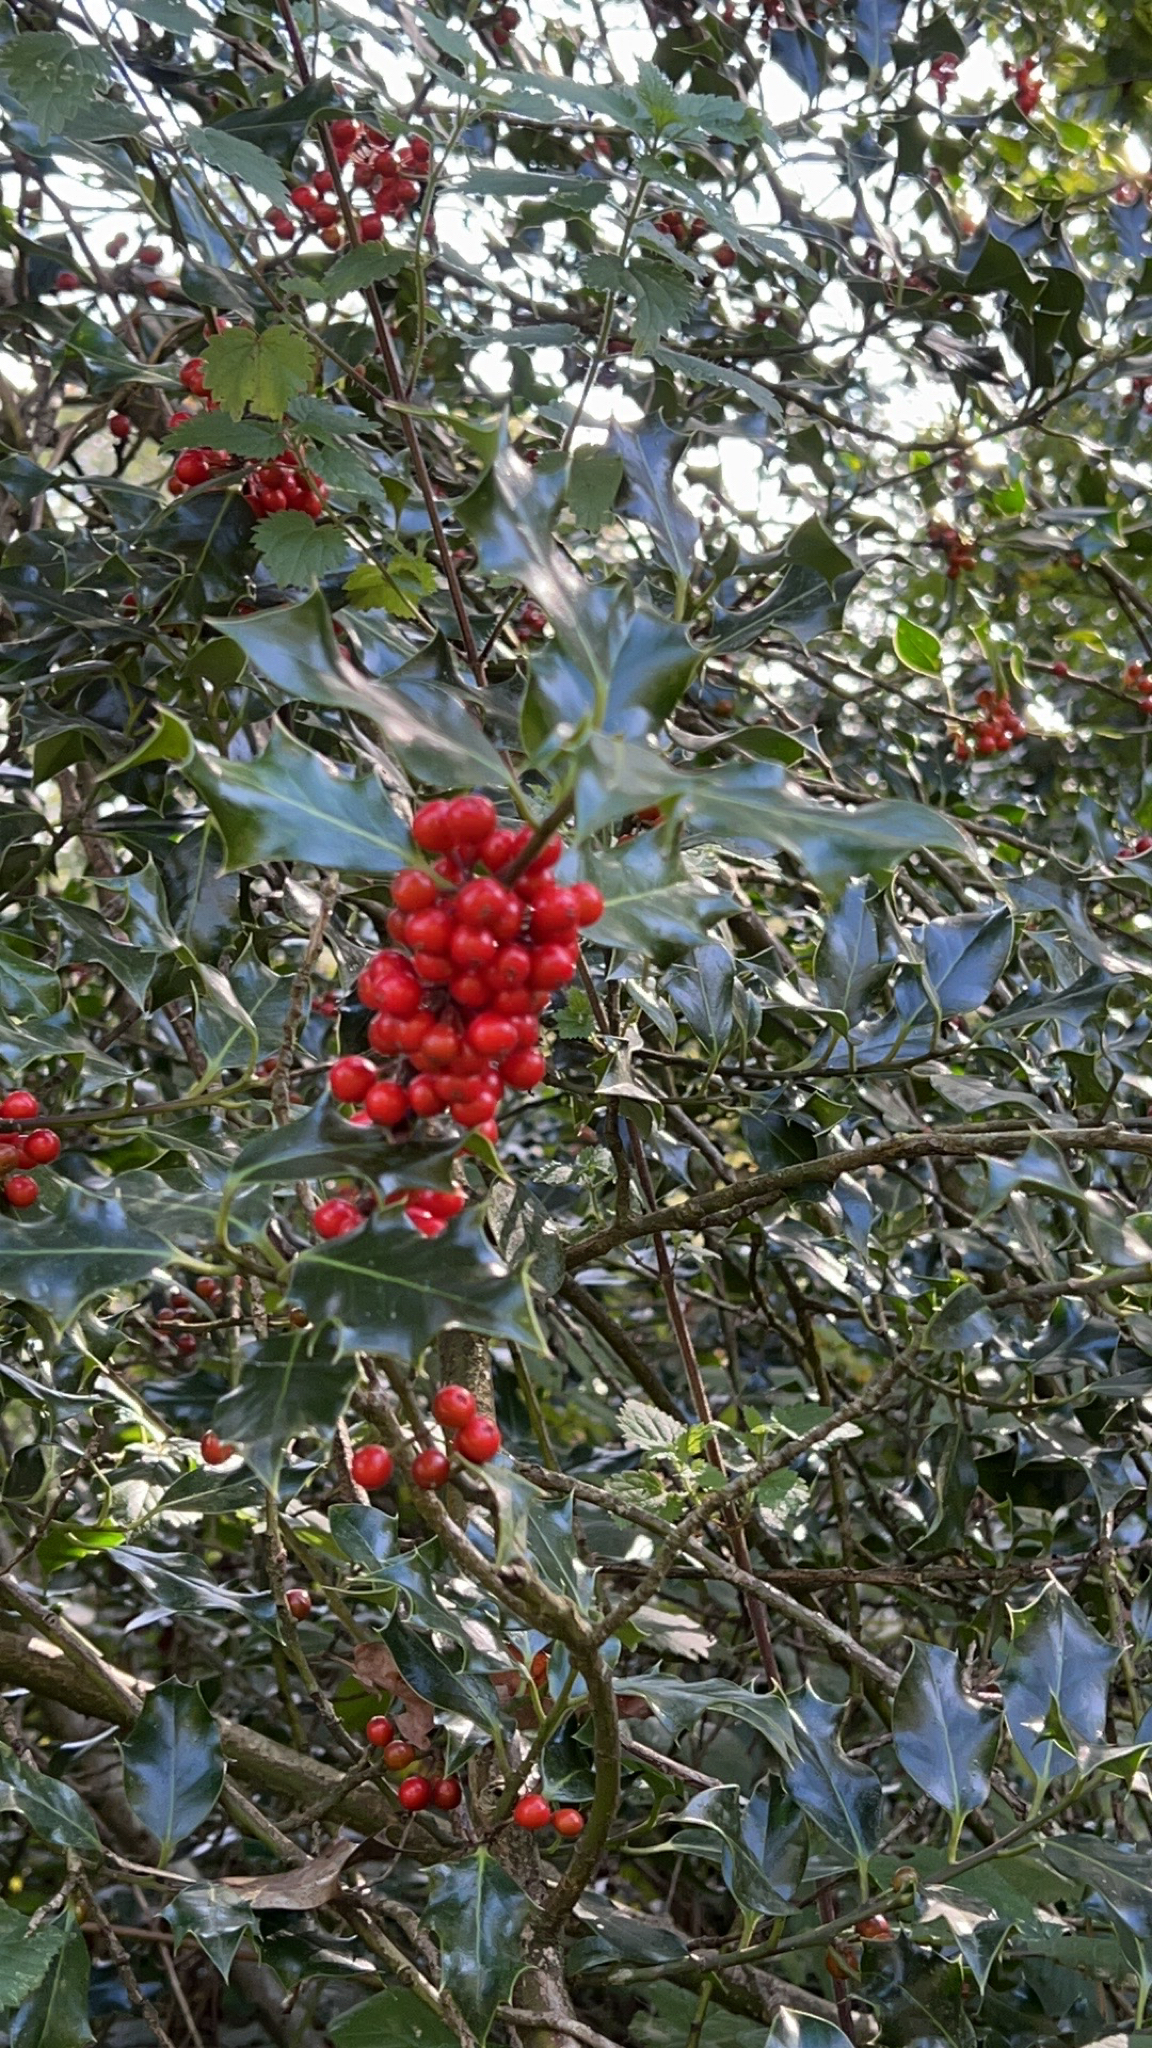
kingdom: Plantae
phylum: Tracheophyta
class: Magnoliopsida
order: Aquifoliales
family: Aquifoliaceae
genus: Ilex
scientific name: Ilex aquifolium
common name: English holly
